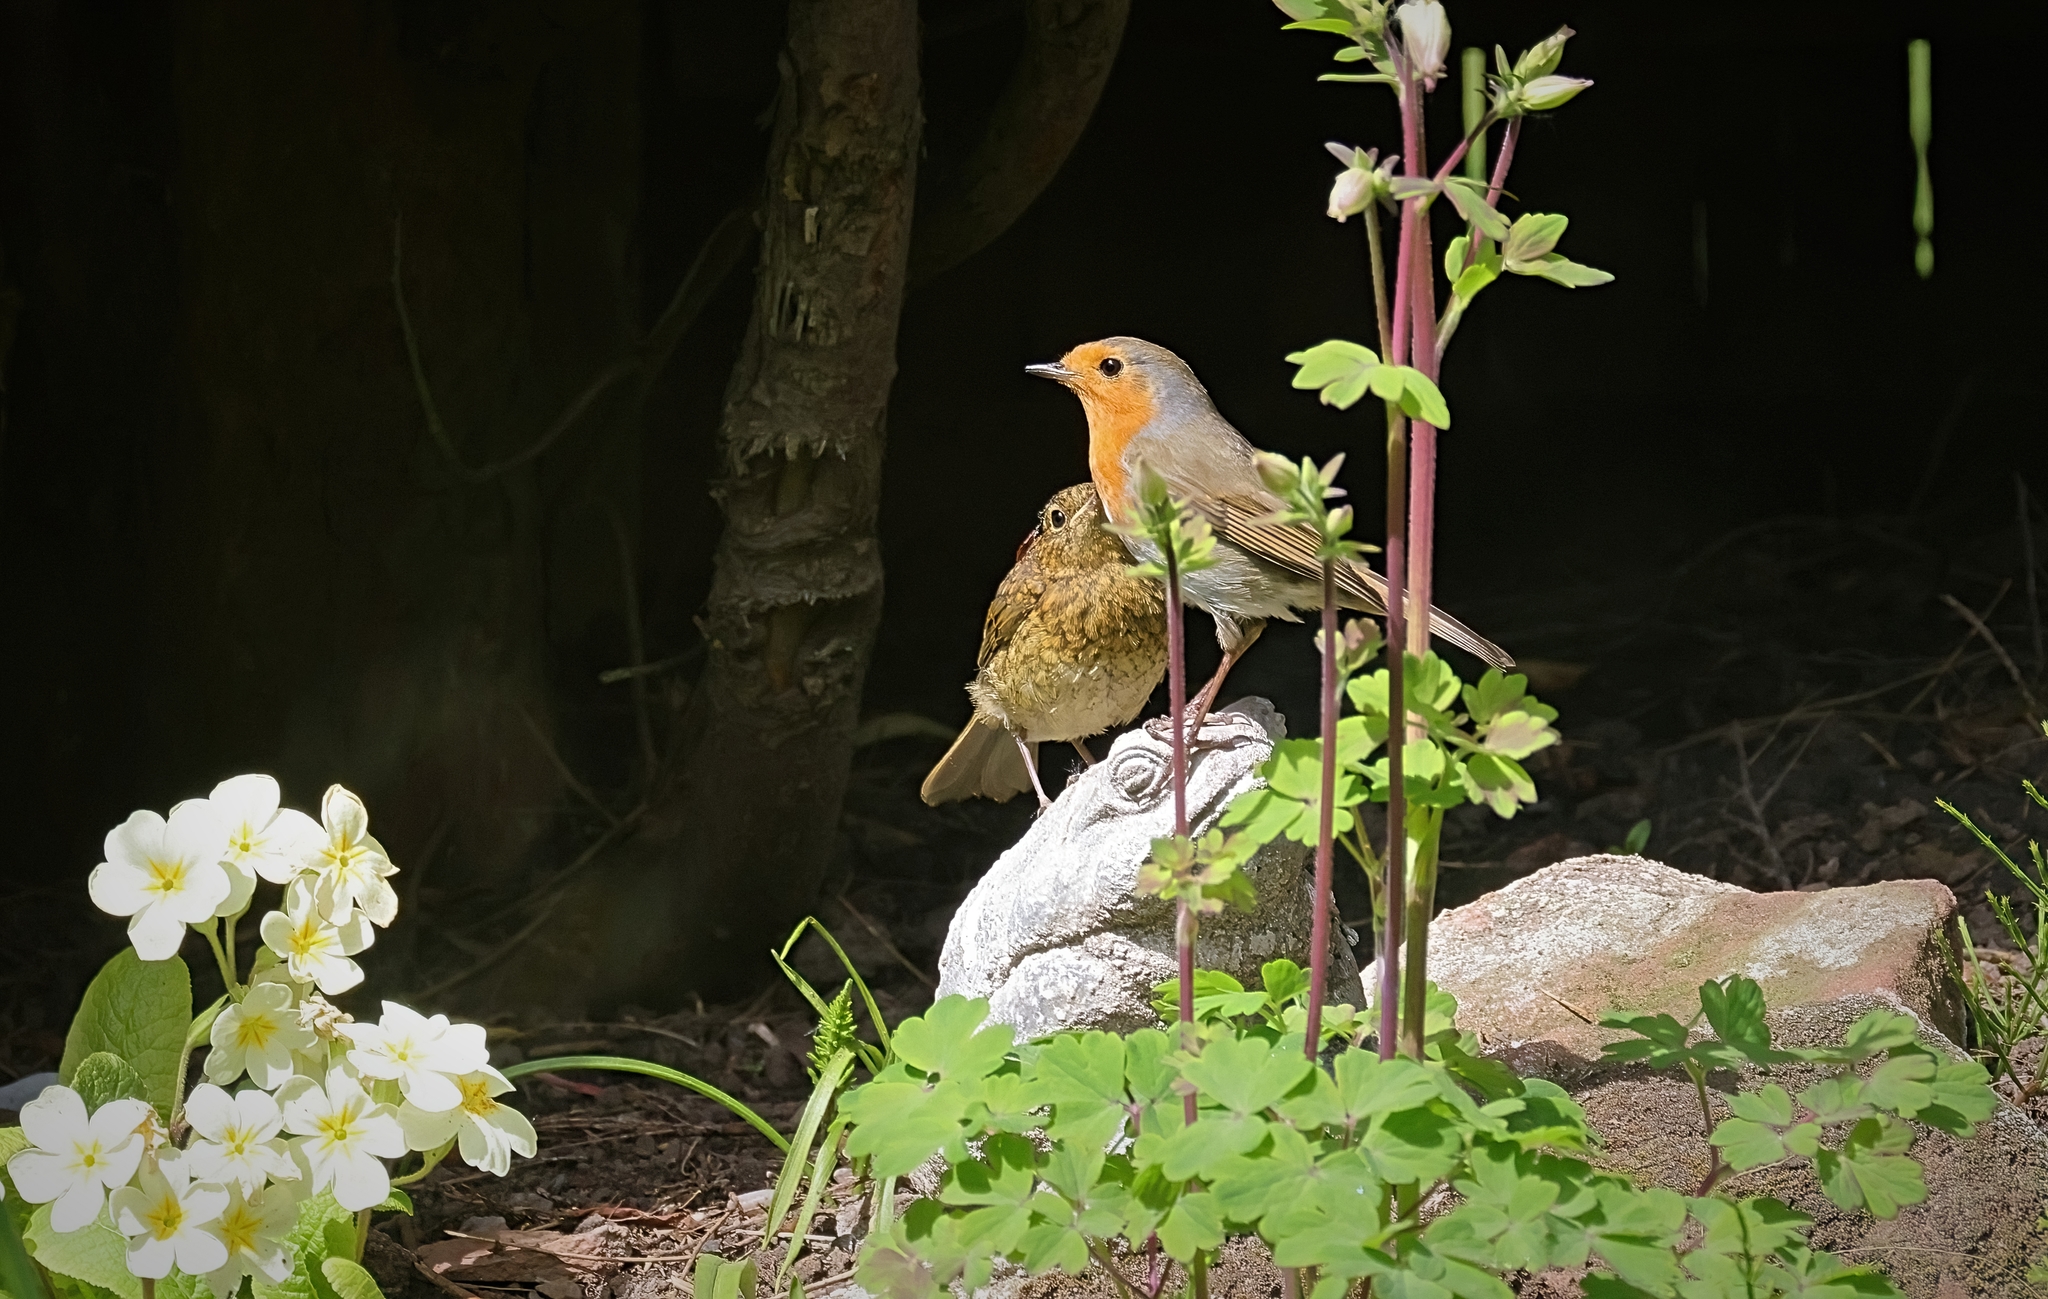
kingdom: Animalia
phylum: Chordata
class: Aves
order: Passeriformes
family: Muscicapidae
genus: Erithacus
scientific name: Erithacus rubecula
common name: European robin
